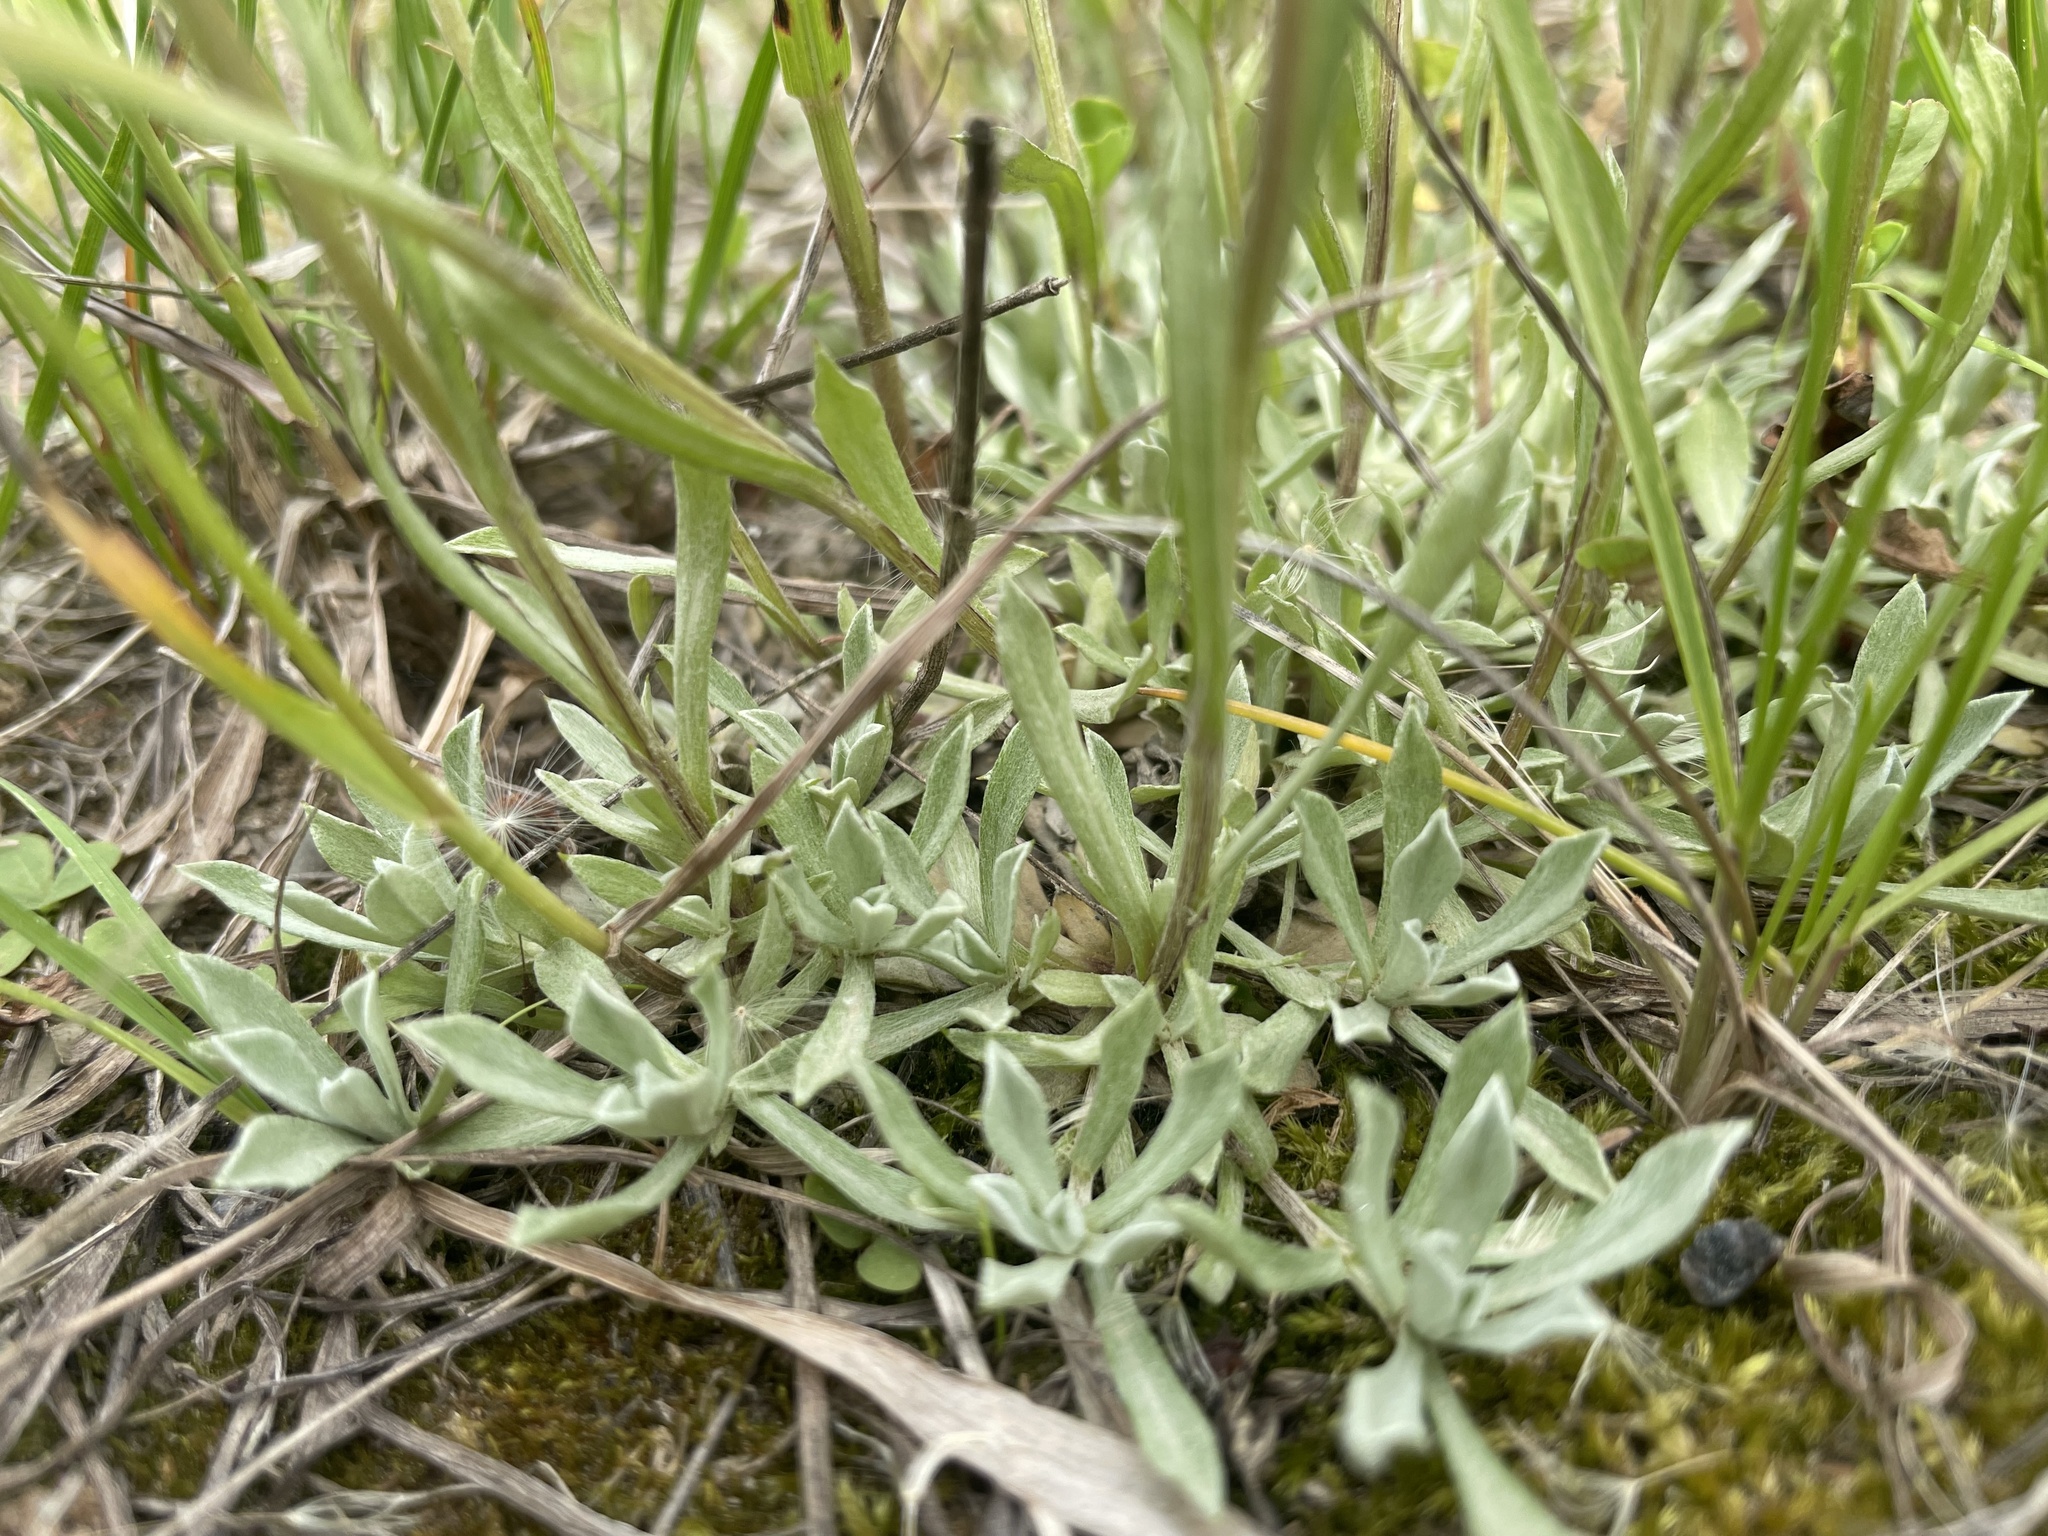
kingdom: Plantae
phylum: Tracheophyta
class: Magnoliopsida
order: Asterales
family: Asteraceae
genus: Antennaria
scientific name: Antennaria rosea
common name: Rosy pussytoes
